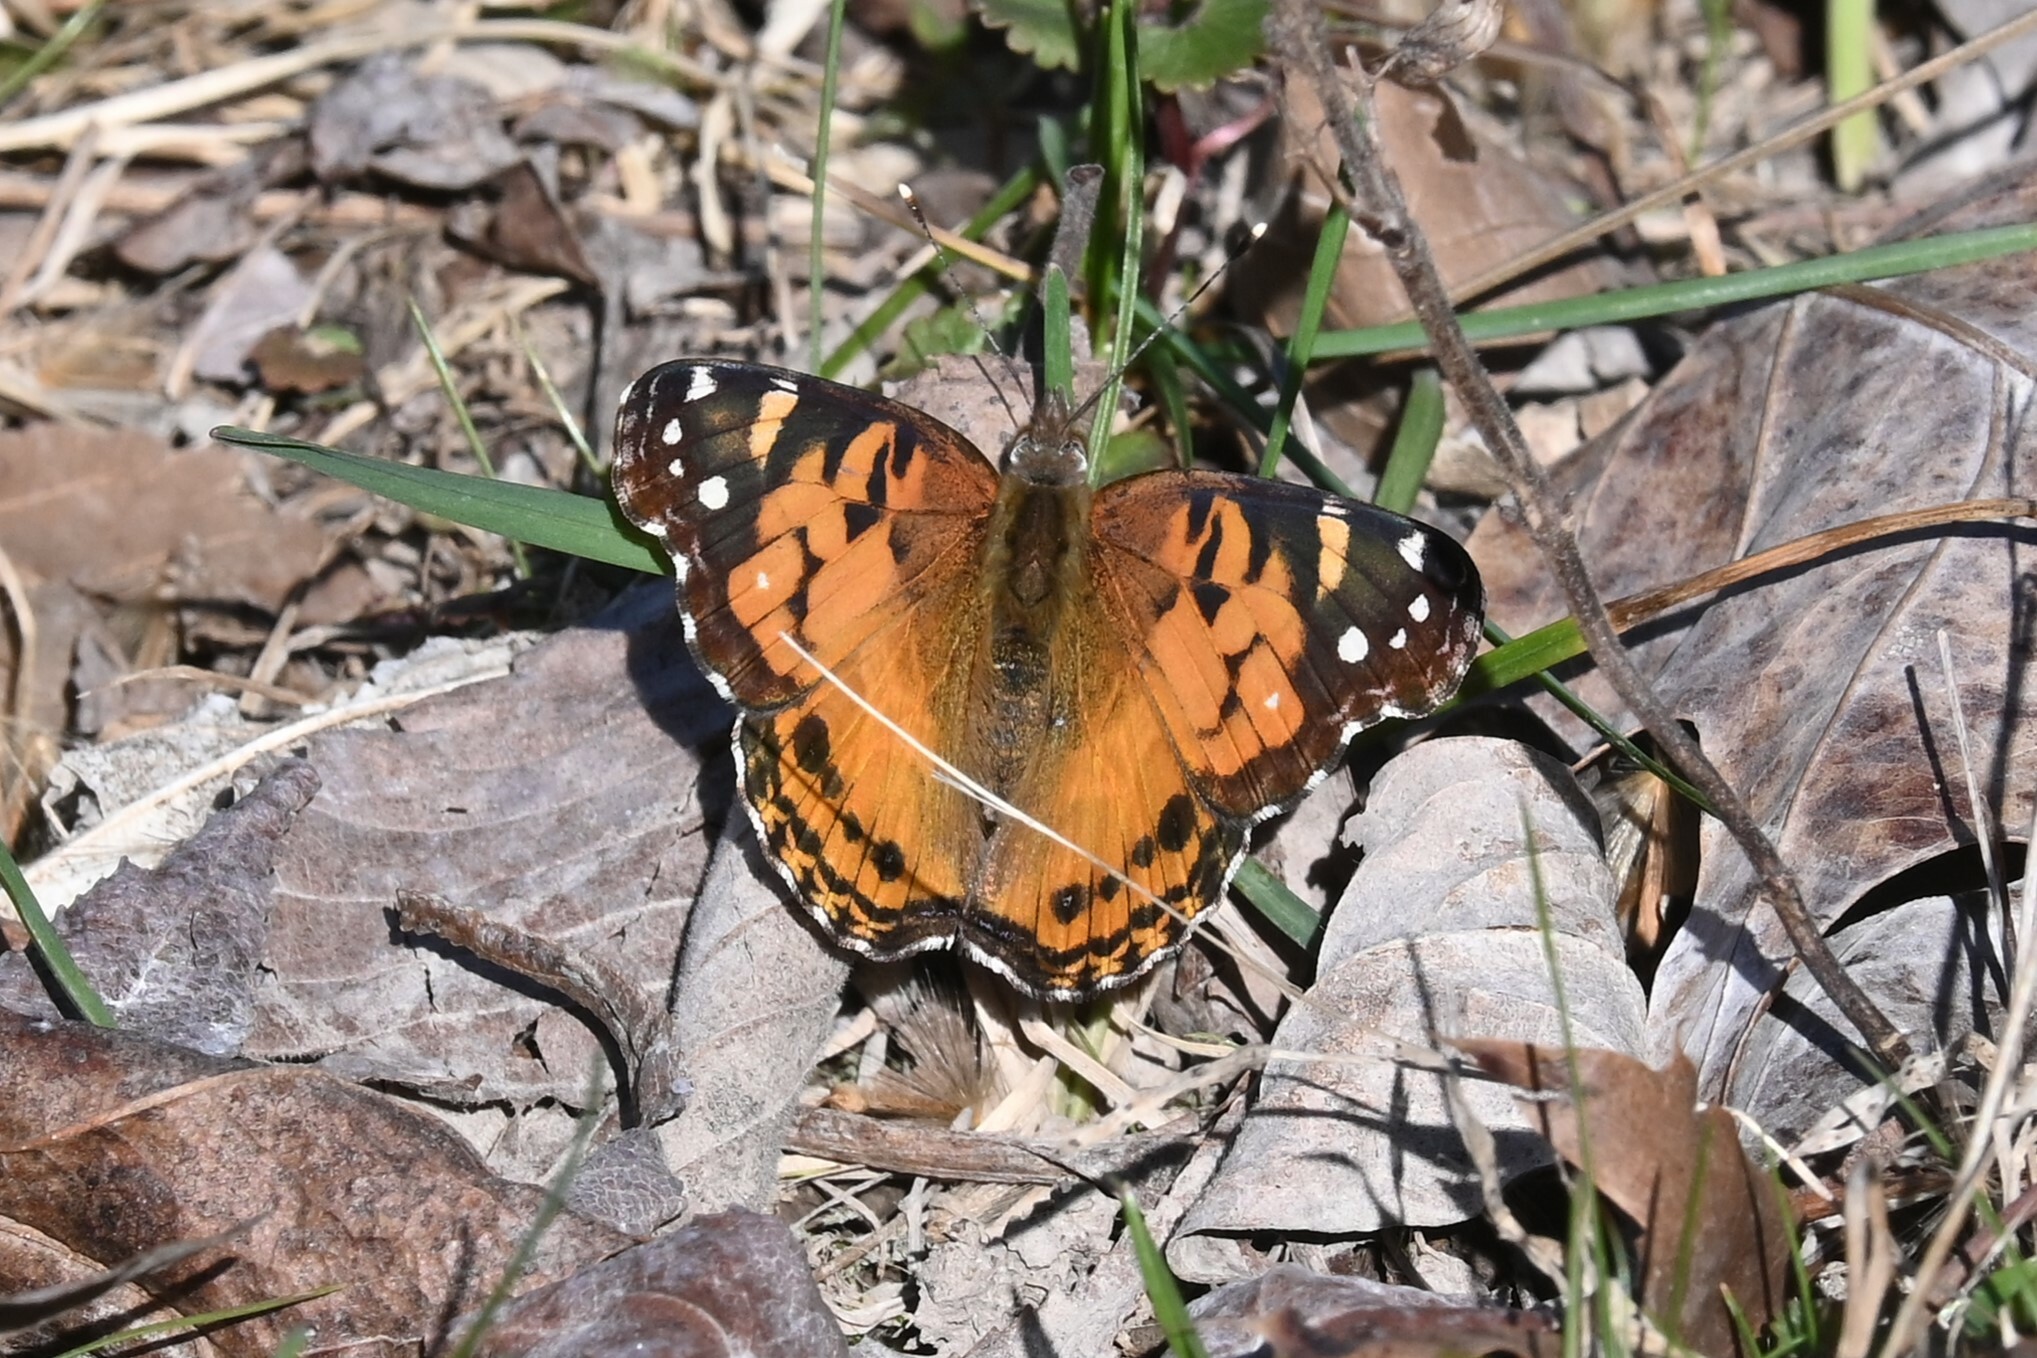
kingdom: Animalia
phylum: Arthropoda
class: Insecta
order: Lepidoptera
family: Nymphalidae
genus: Vanessa
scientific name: Vanessa virginiensis
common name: American lady
